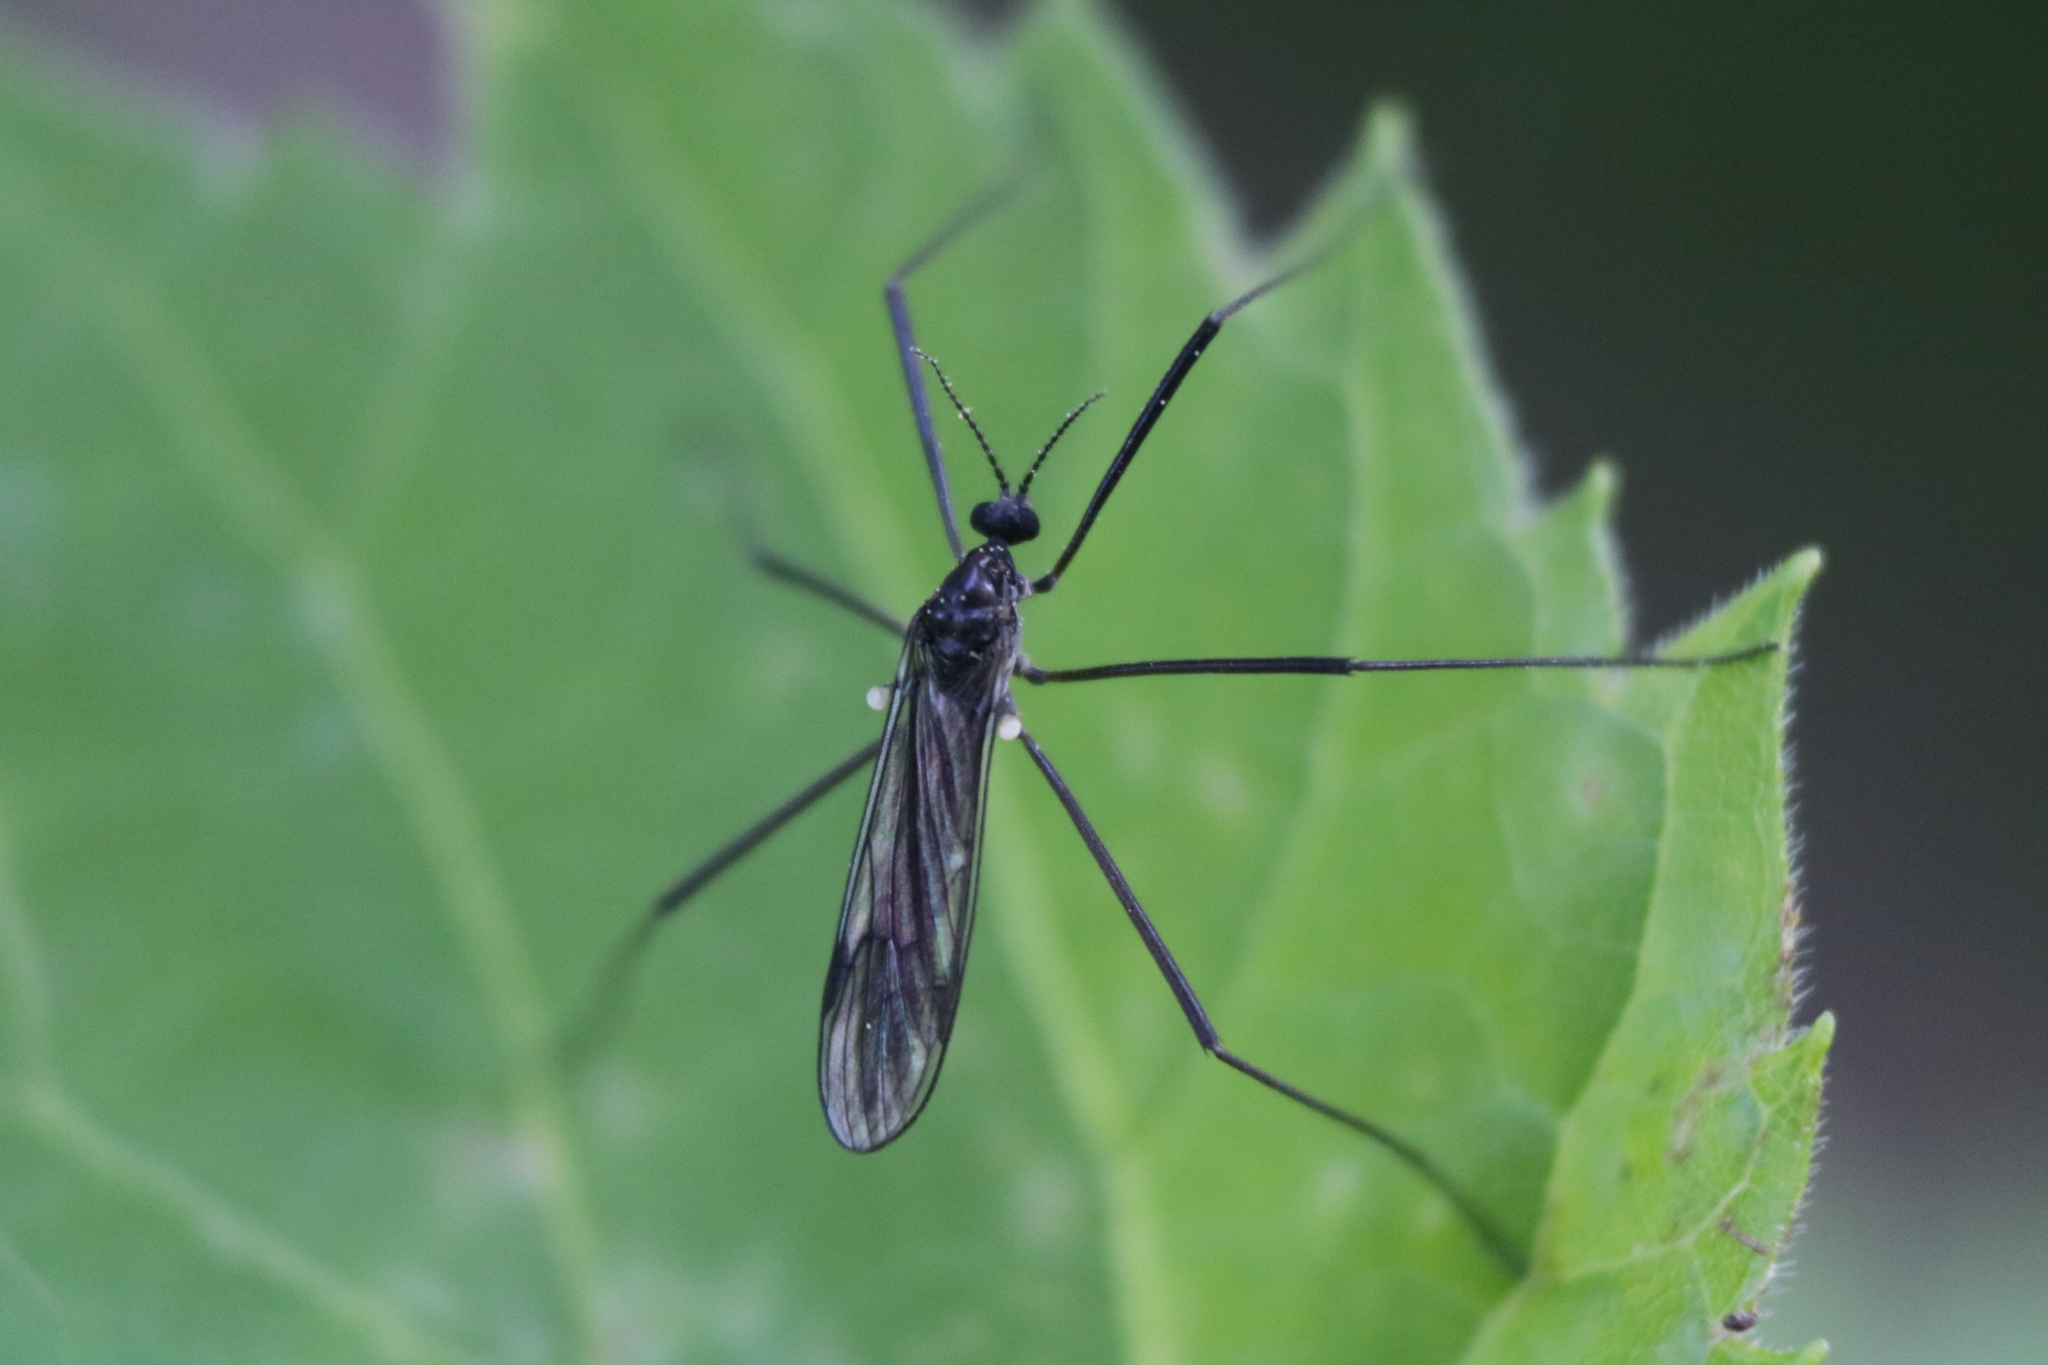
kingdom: Animalia
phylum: Arthropoda
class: Insecta
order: Diptera
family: Limoniidae
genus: Gnophomyia
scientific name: Gnophomyia tristissima
